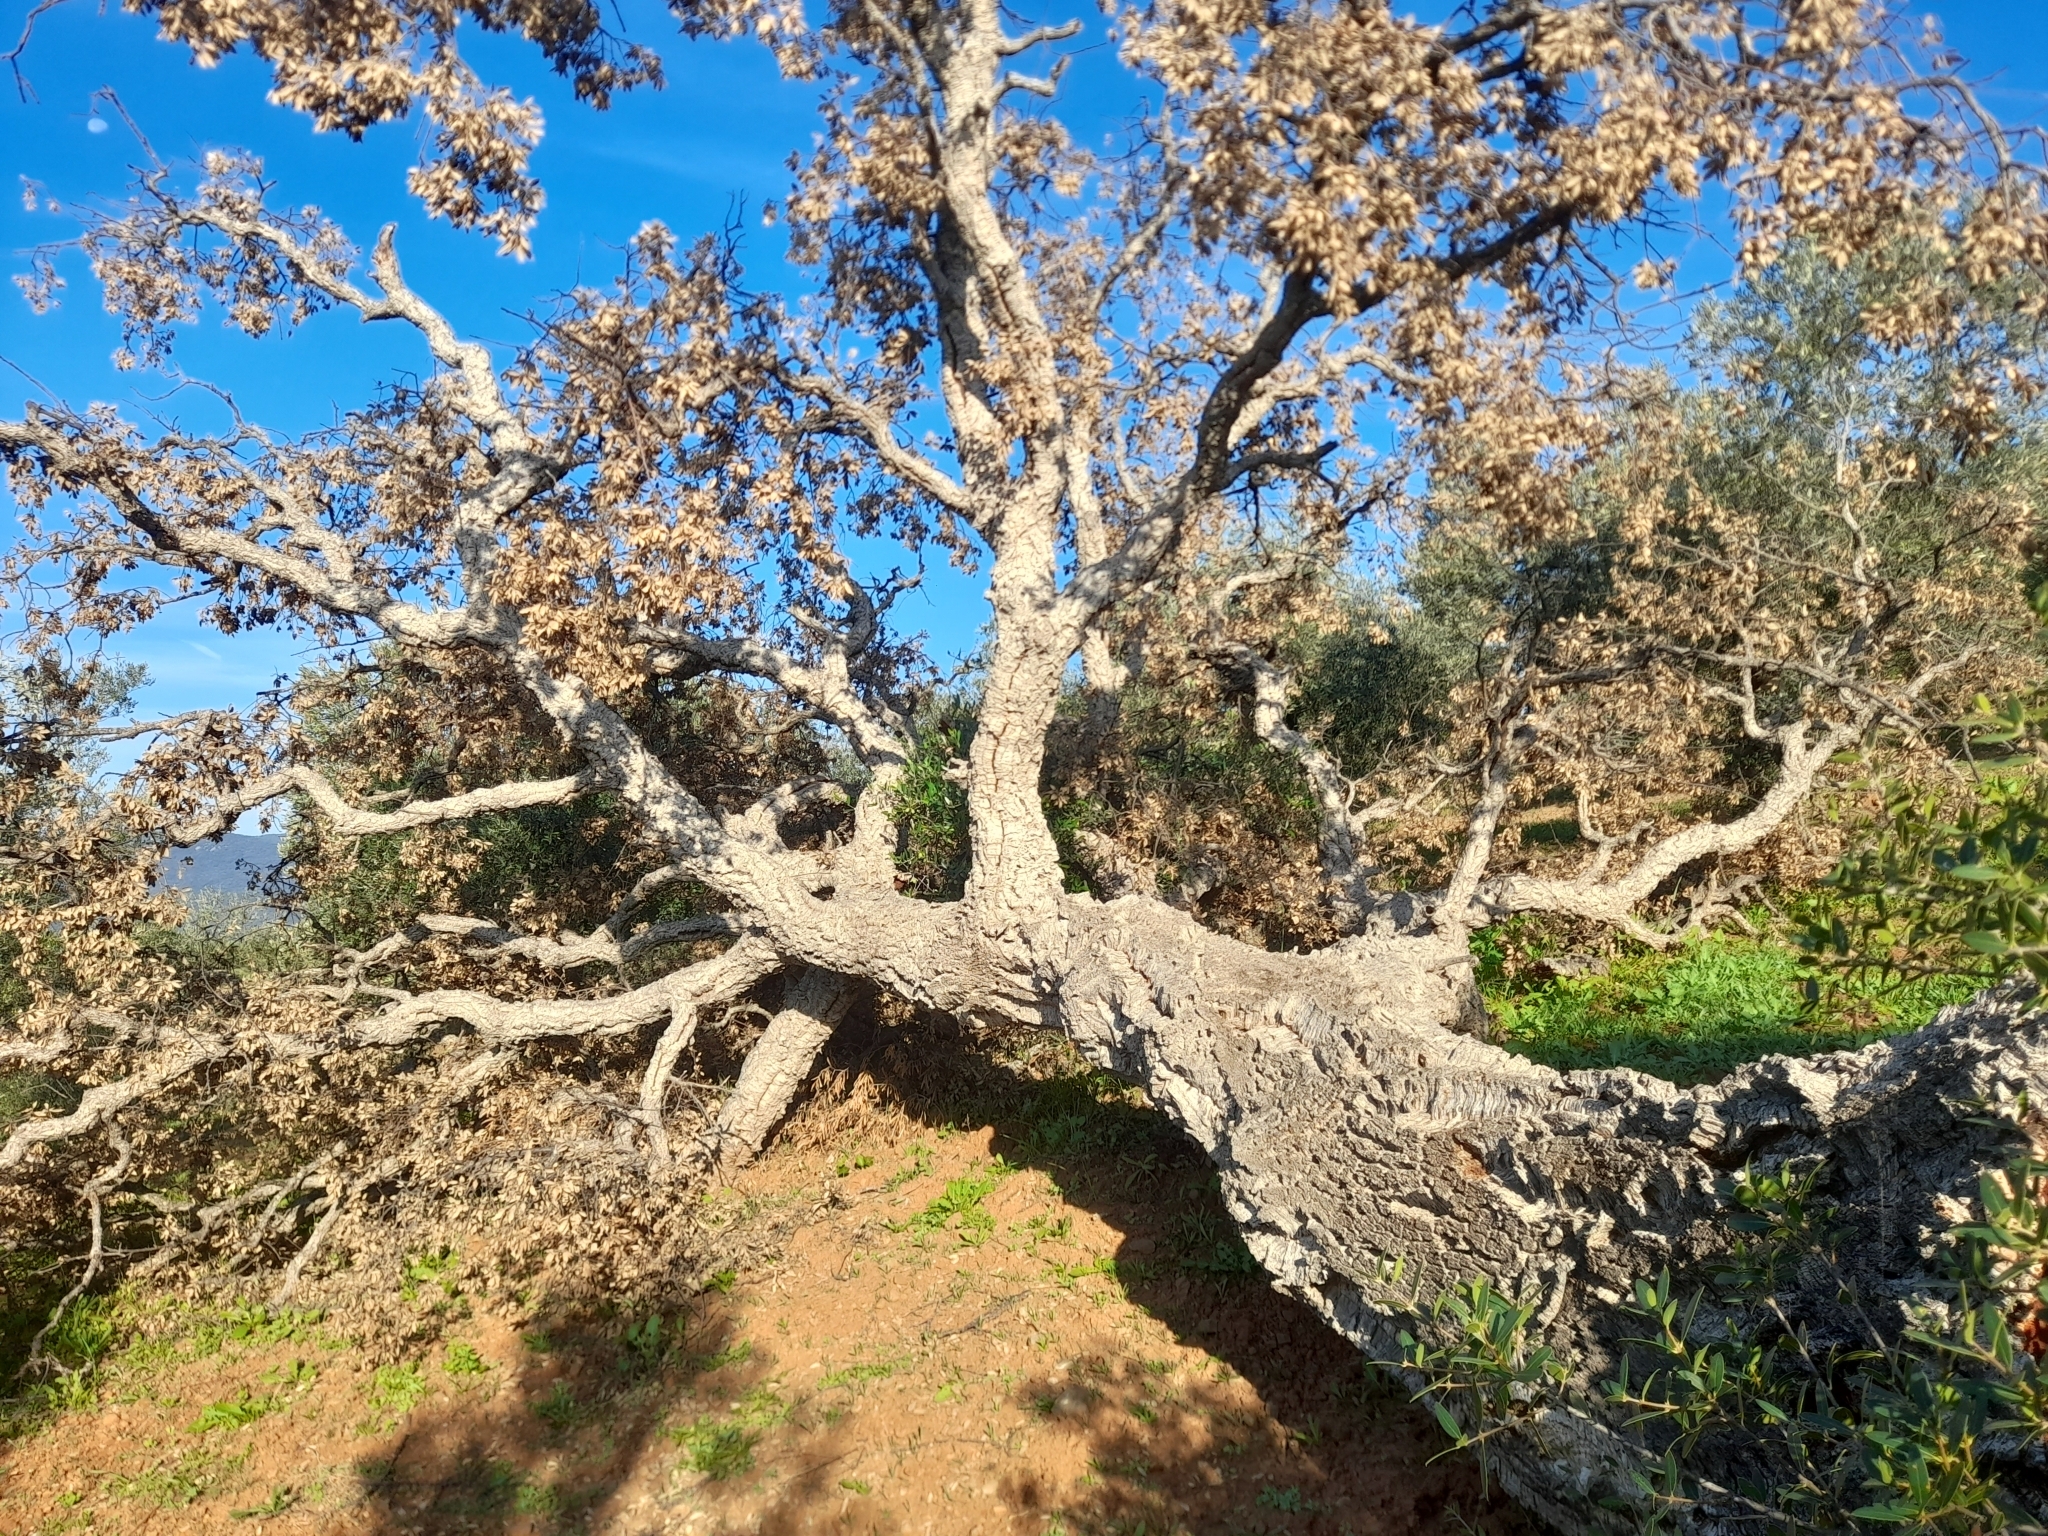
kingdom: Plantae
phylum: Tracheophyta
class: Magnoliopsida
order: Fagales
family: Fagaceae
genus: Quercus
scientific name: Quercus suber
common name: Cork oak
